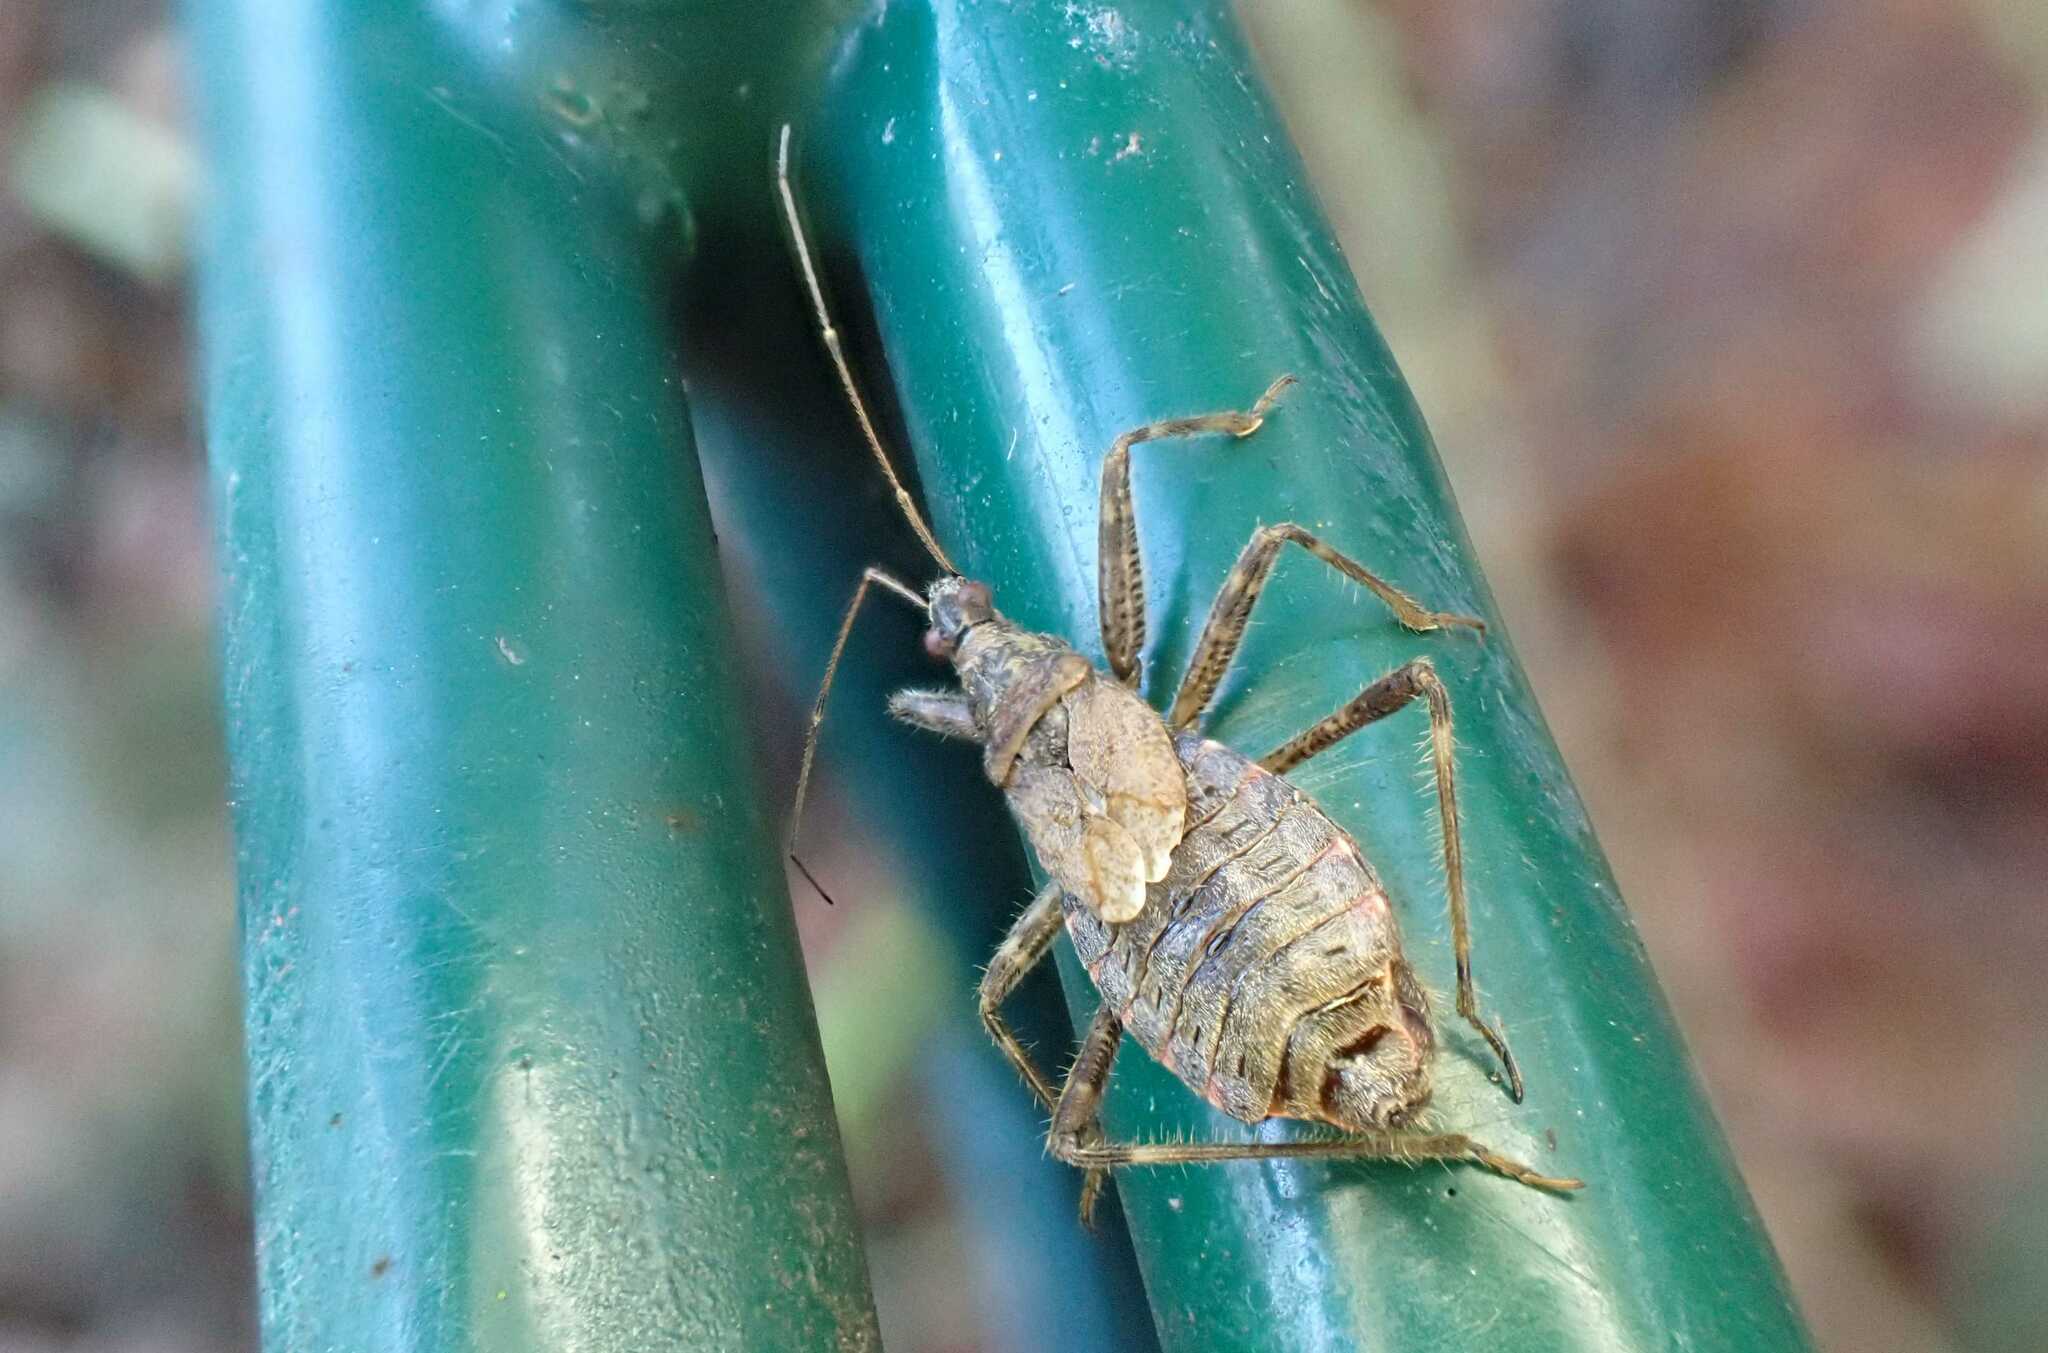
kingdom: Animalia
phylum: Arthropoda
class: Insecta
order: Hemiptera
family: Nabidae
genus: Himacerus
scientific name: Himacerus apterus
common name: Tree damsel bug
